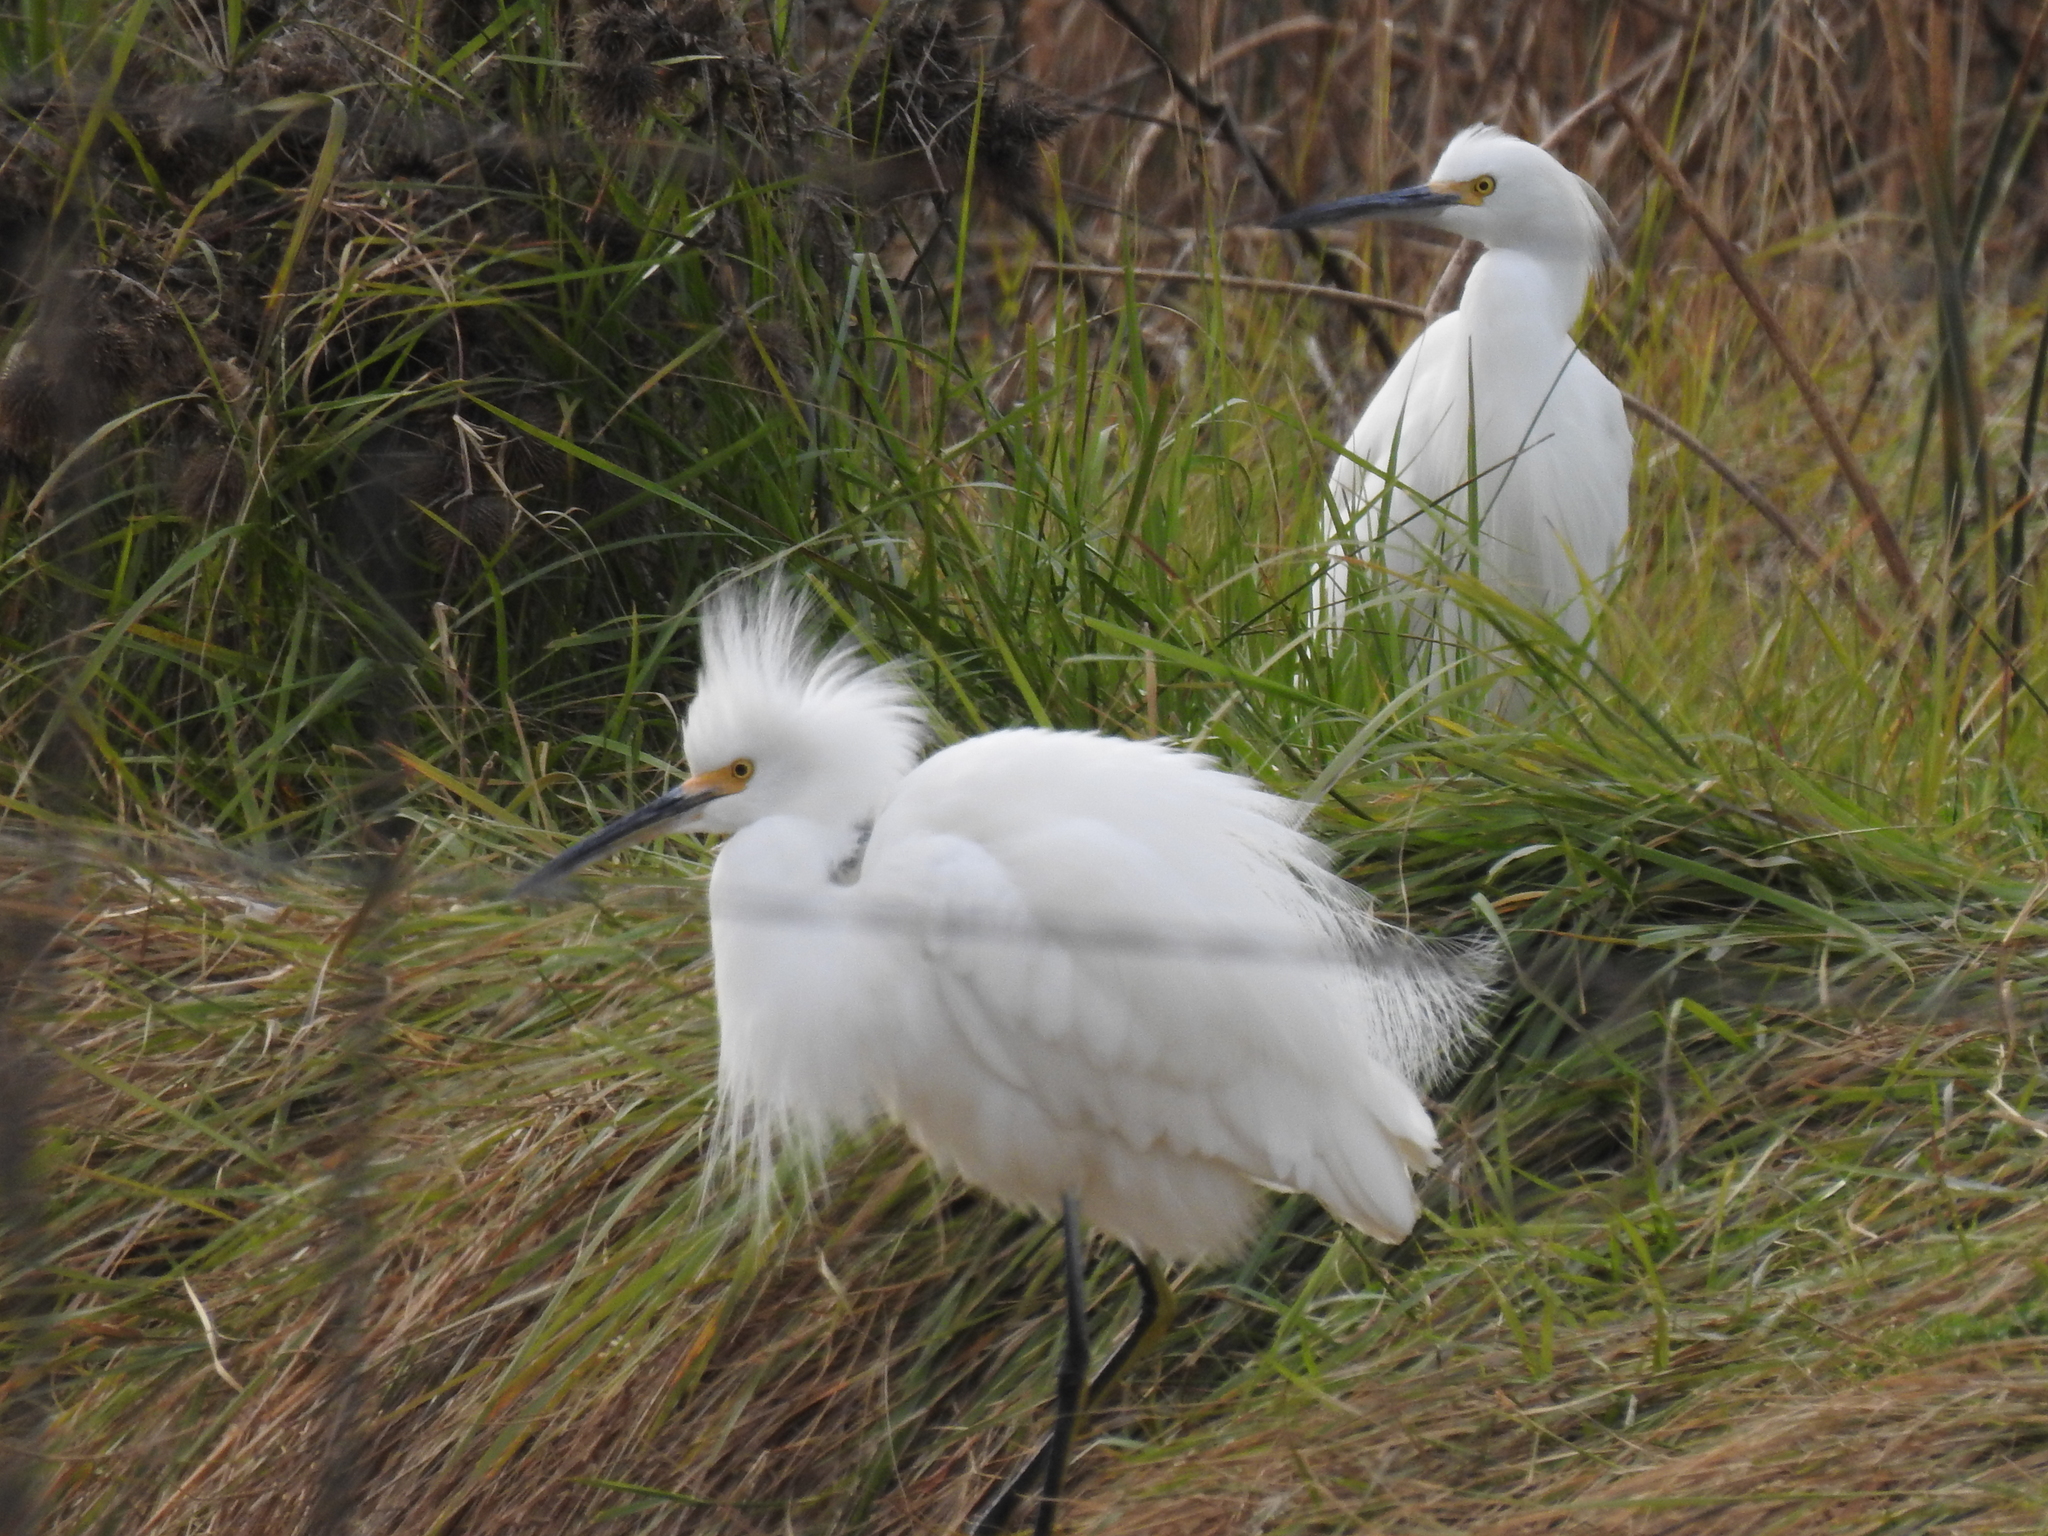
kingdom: Animalia
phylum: Chordata
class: Aves
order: Pelecaniformes
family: Ardeidae
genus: Egretta
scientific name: Egretta thula
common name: Snowy egret
